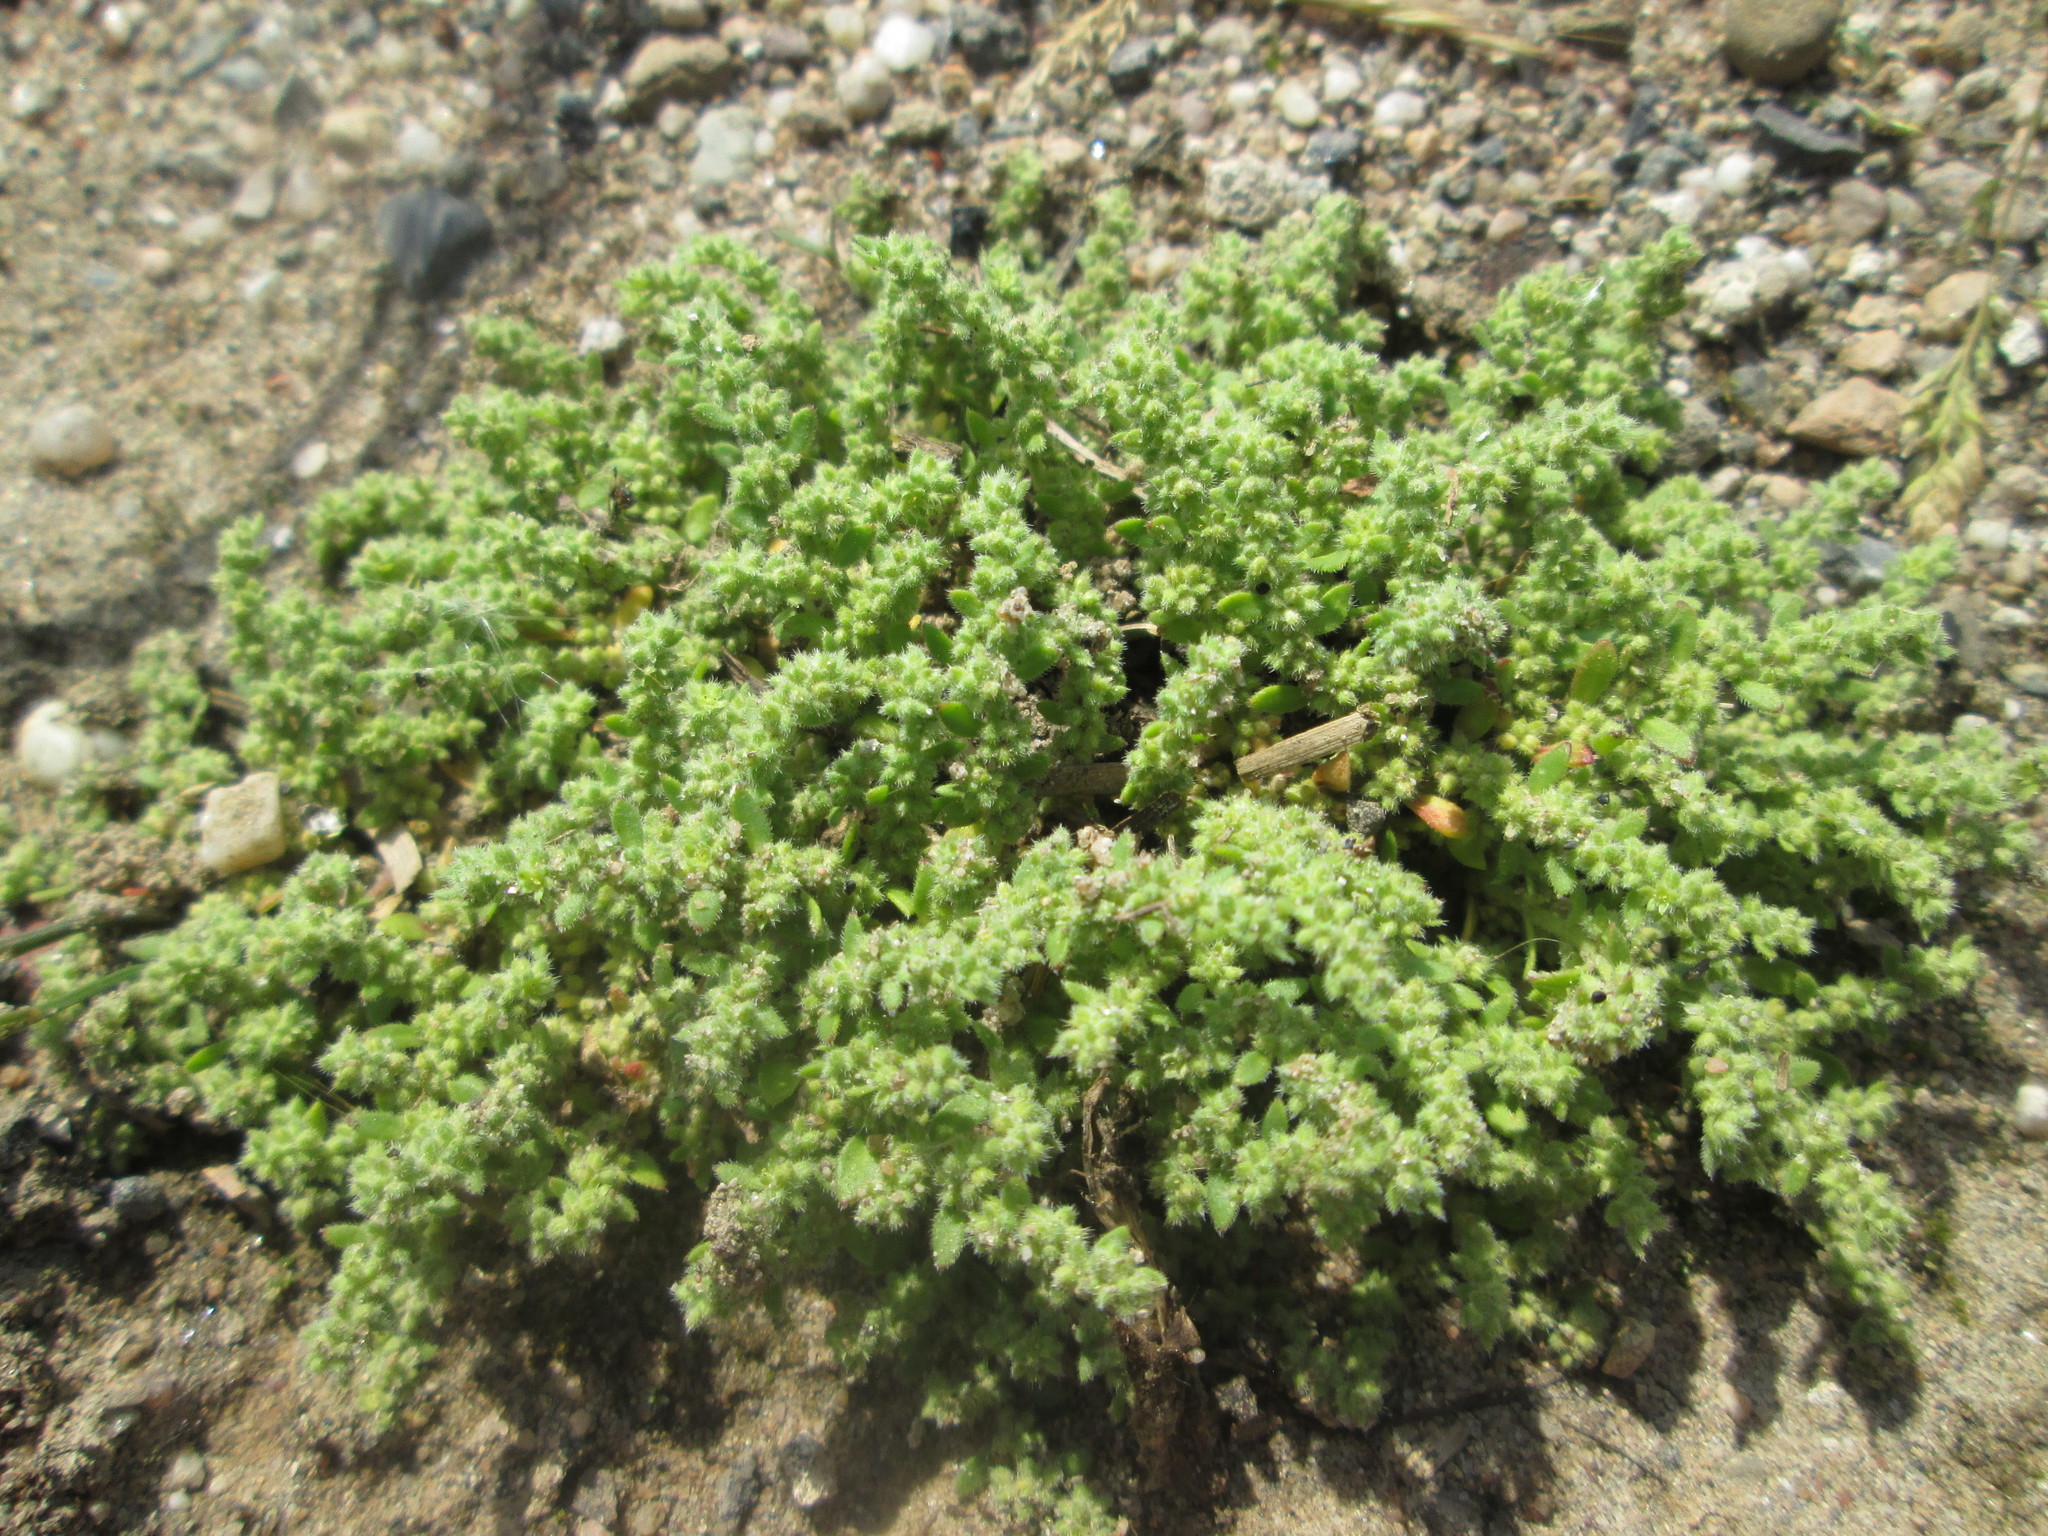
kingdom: Plantae
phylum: Tracheophyta
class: Magnoliopsida
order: Caryophyllales
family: Caryophyllaceae
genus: Herniaria
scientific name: Herniaria hirsuta
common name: Hairy rupturewort
